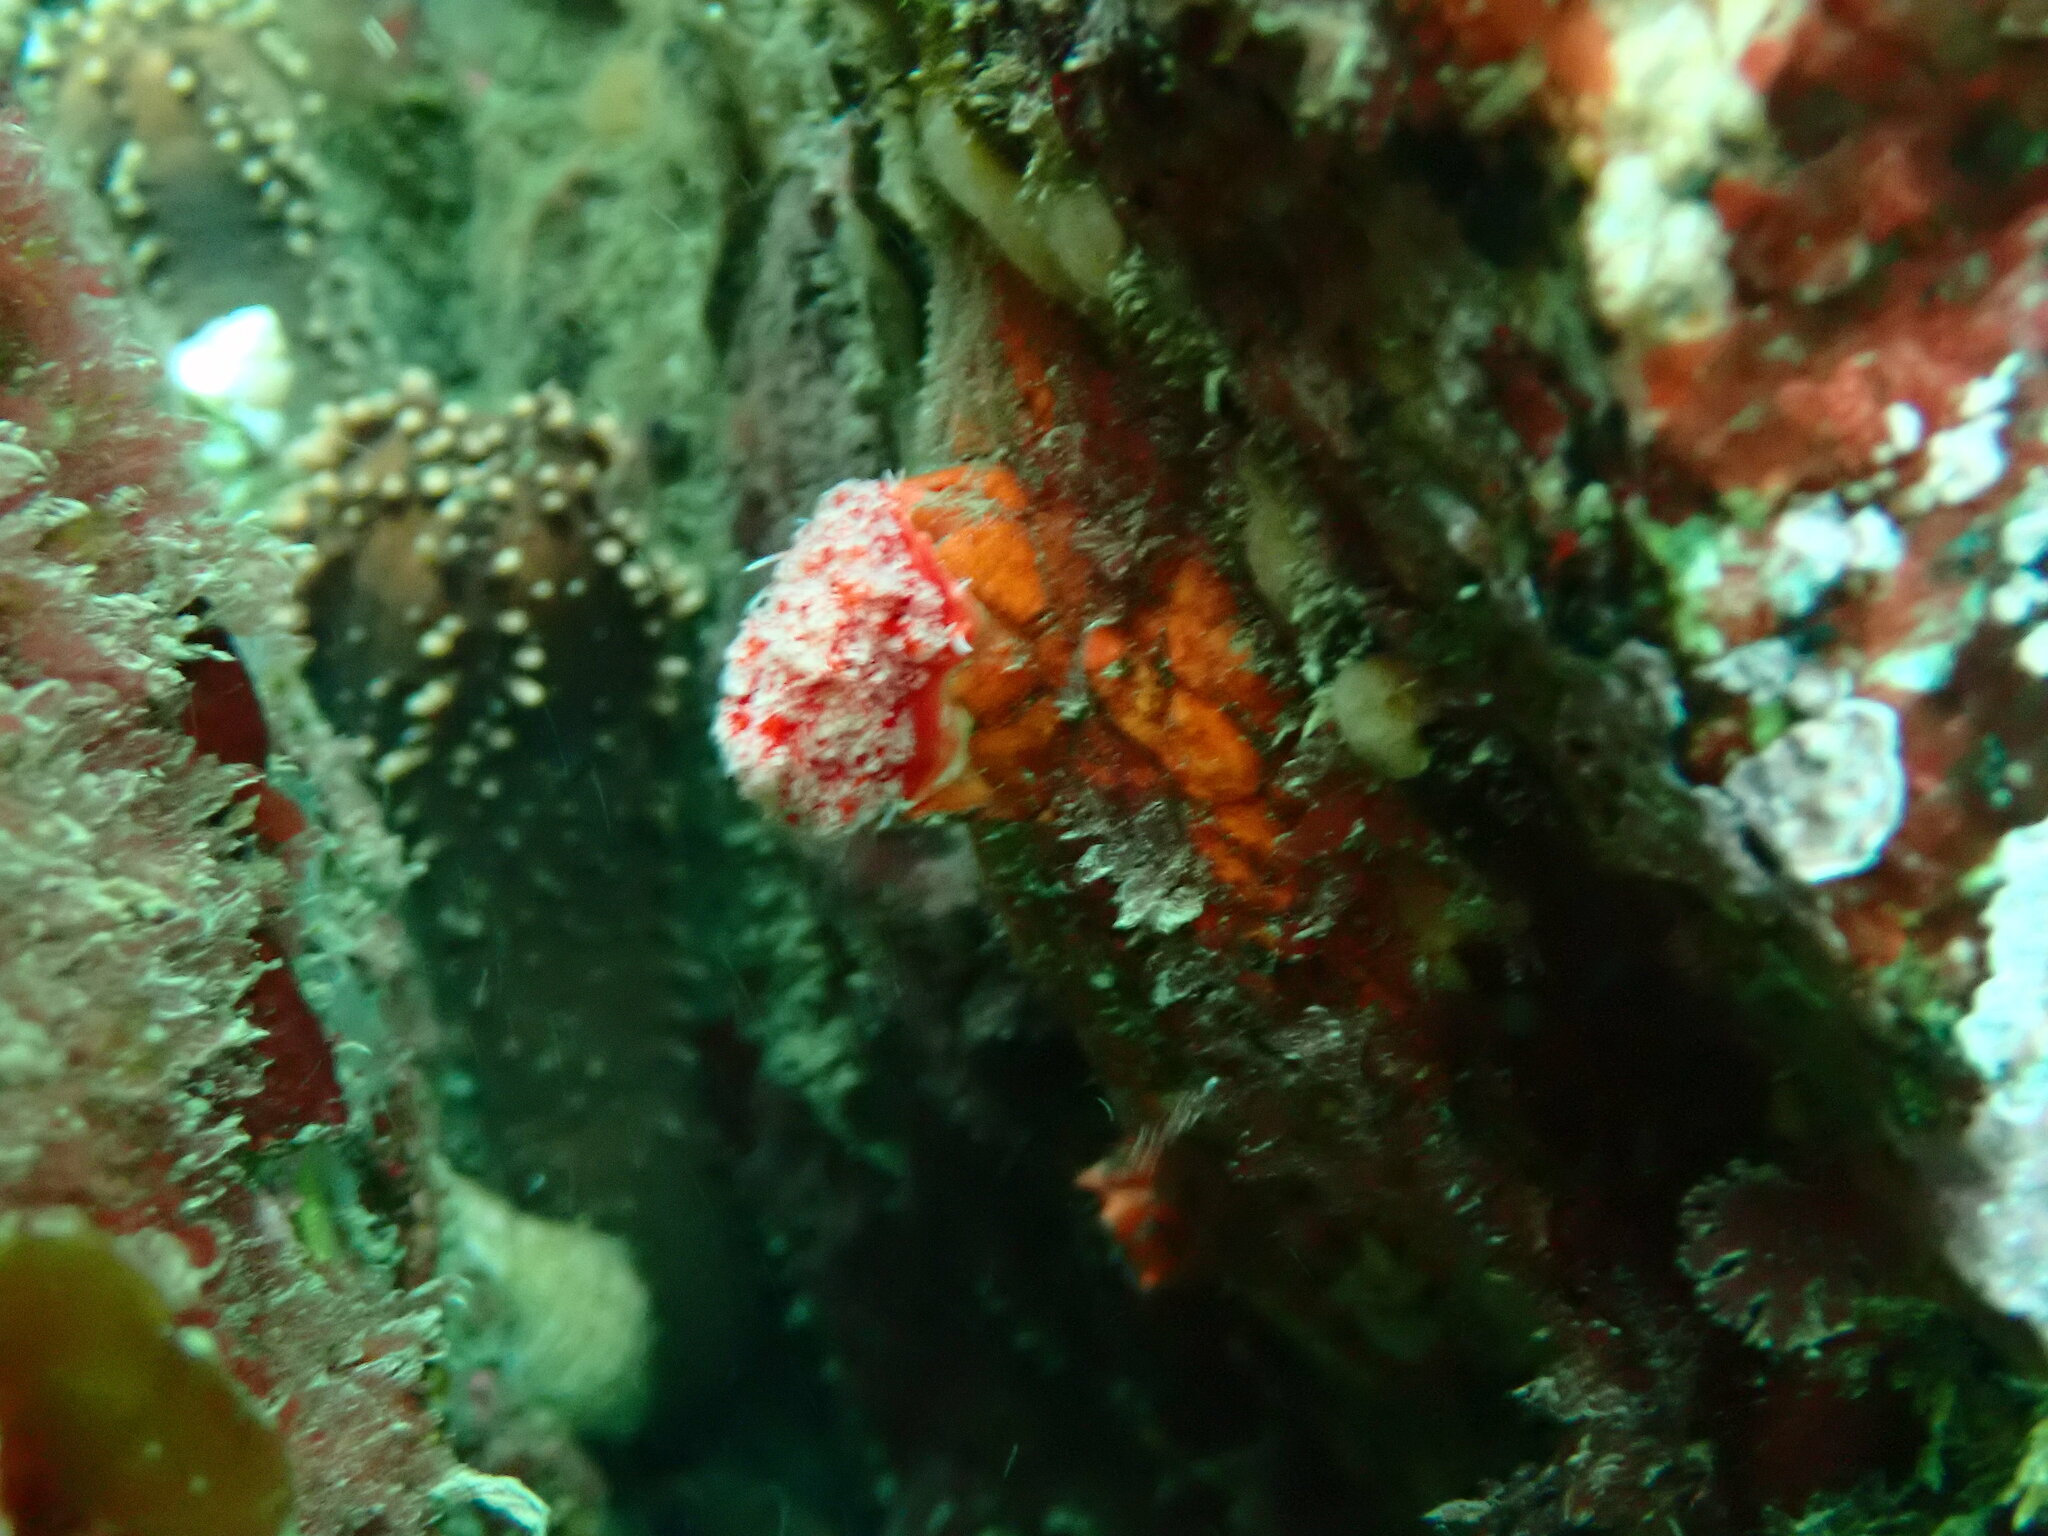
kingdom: Animalia
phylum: Echinodermata
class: Holothuroidea
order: Dendrochirotida
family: Psolidae
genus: Psolus
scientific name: Psolus chitonoides
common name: Creeping pedal sea cucumber
